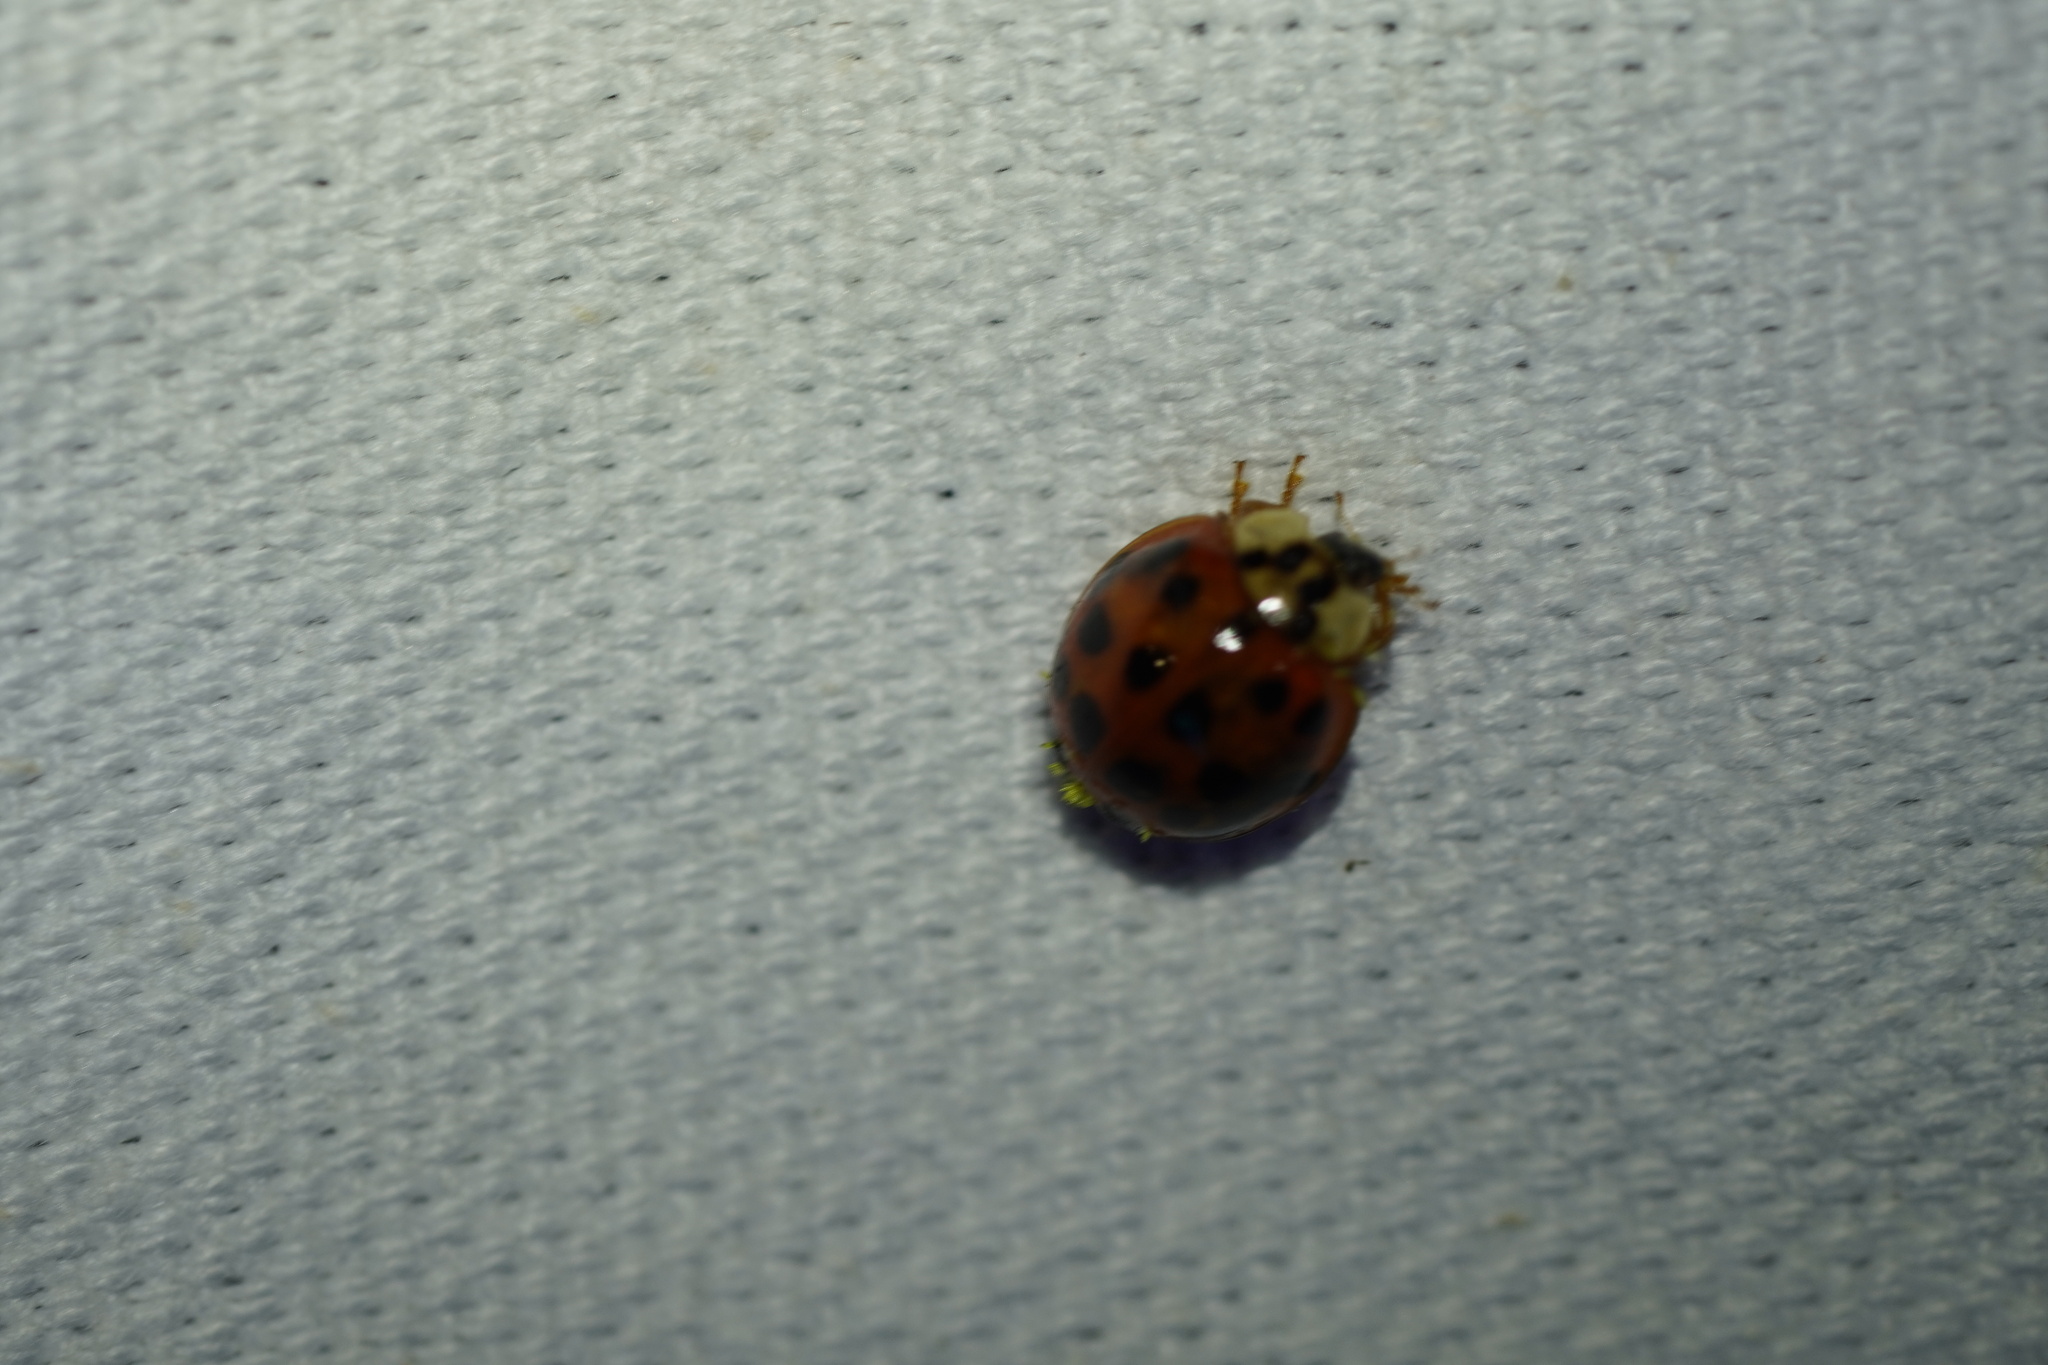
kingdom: Animalia
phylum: Arthropoda
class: Insecta
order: Coleoptera
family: Coccinellidae
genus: Harmonia
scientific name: Harmonia axyridis
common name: Harlequin ladybird
